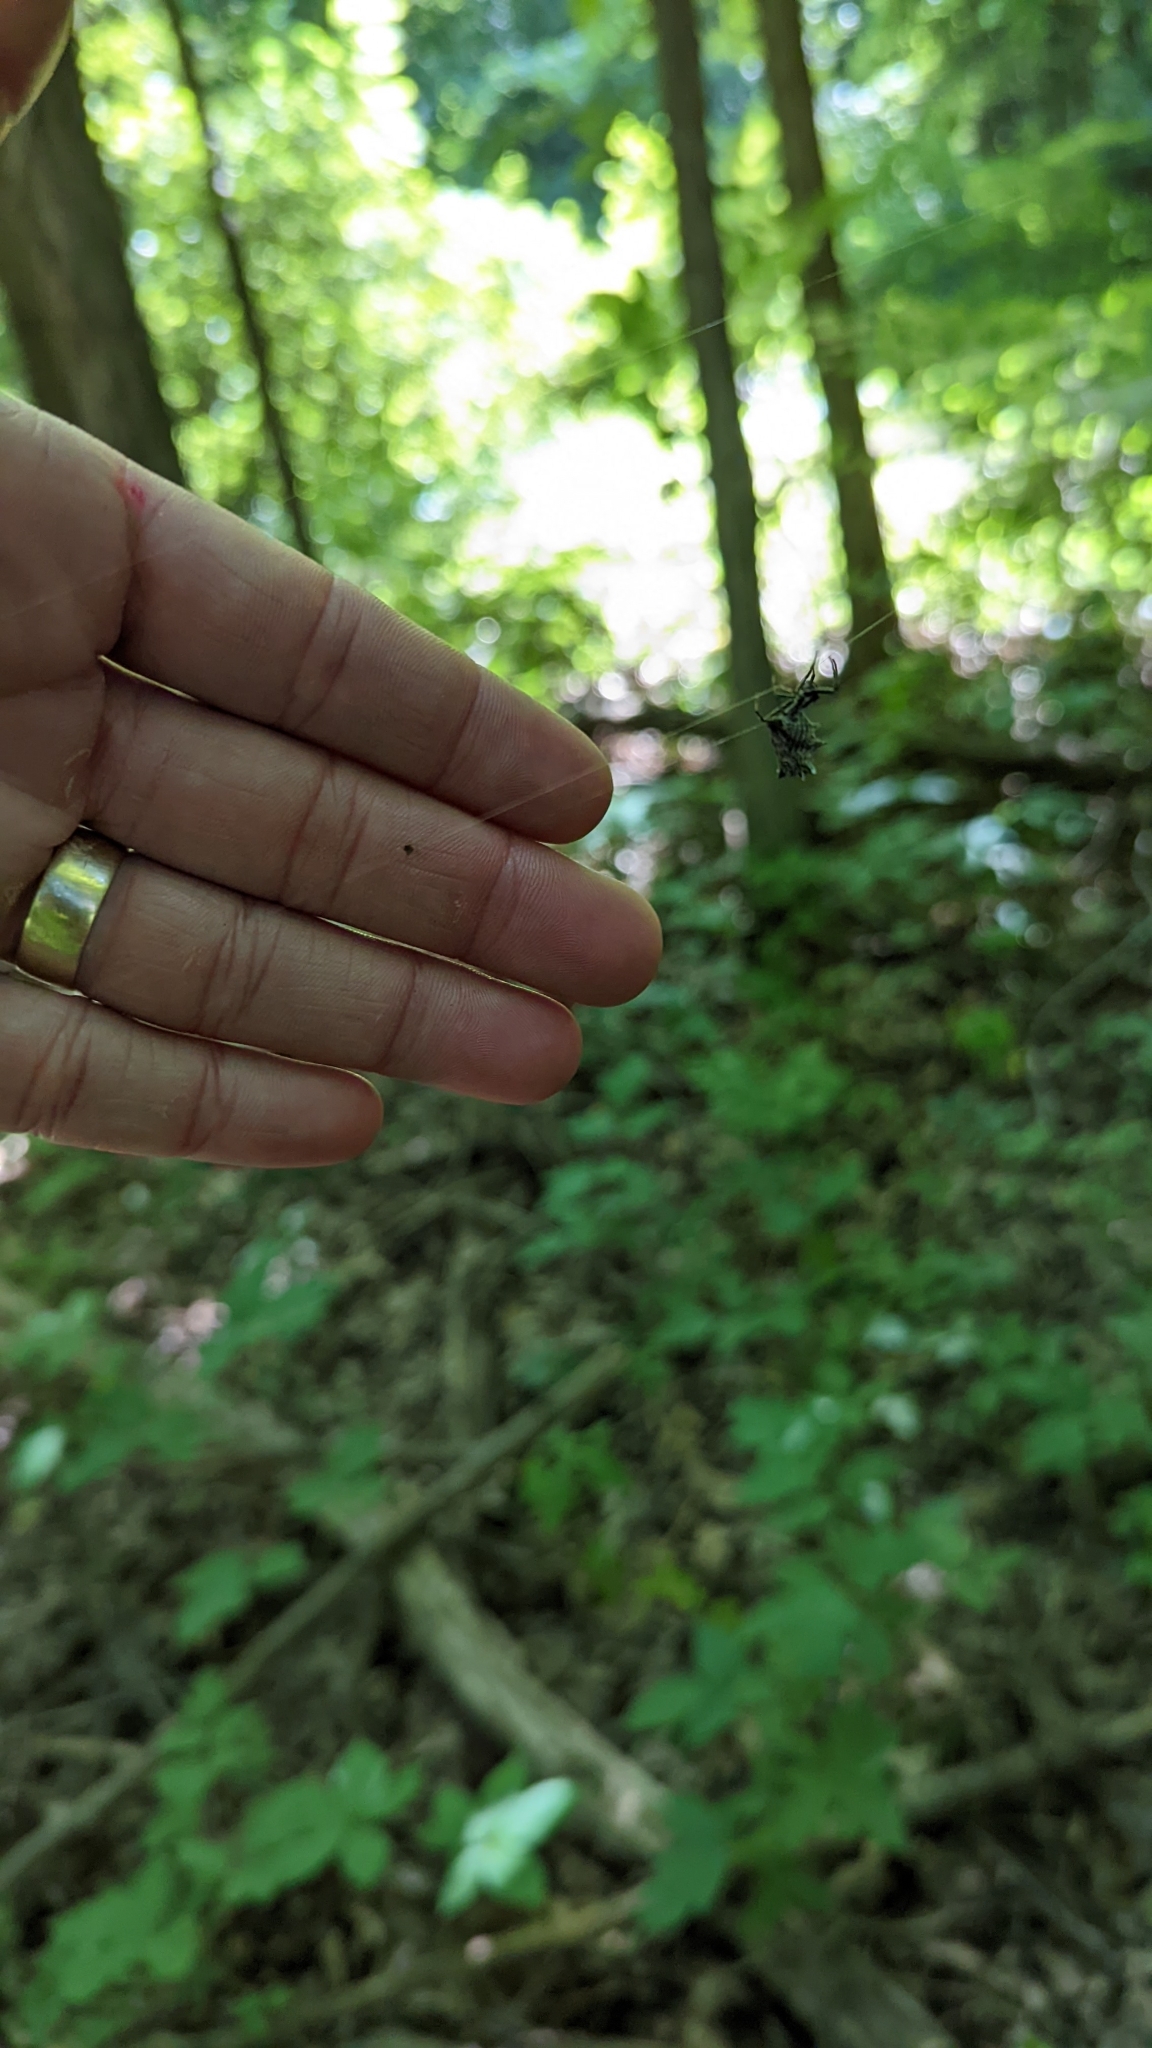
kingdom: Animalia
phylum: Arthropoda
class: Arachnida
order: Araneae
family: Araneidae
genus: Micrathena
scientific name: Micrathena gracilis
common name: Orb weavers
